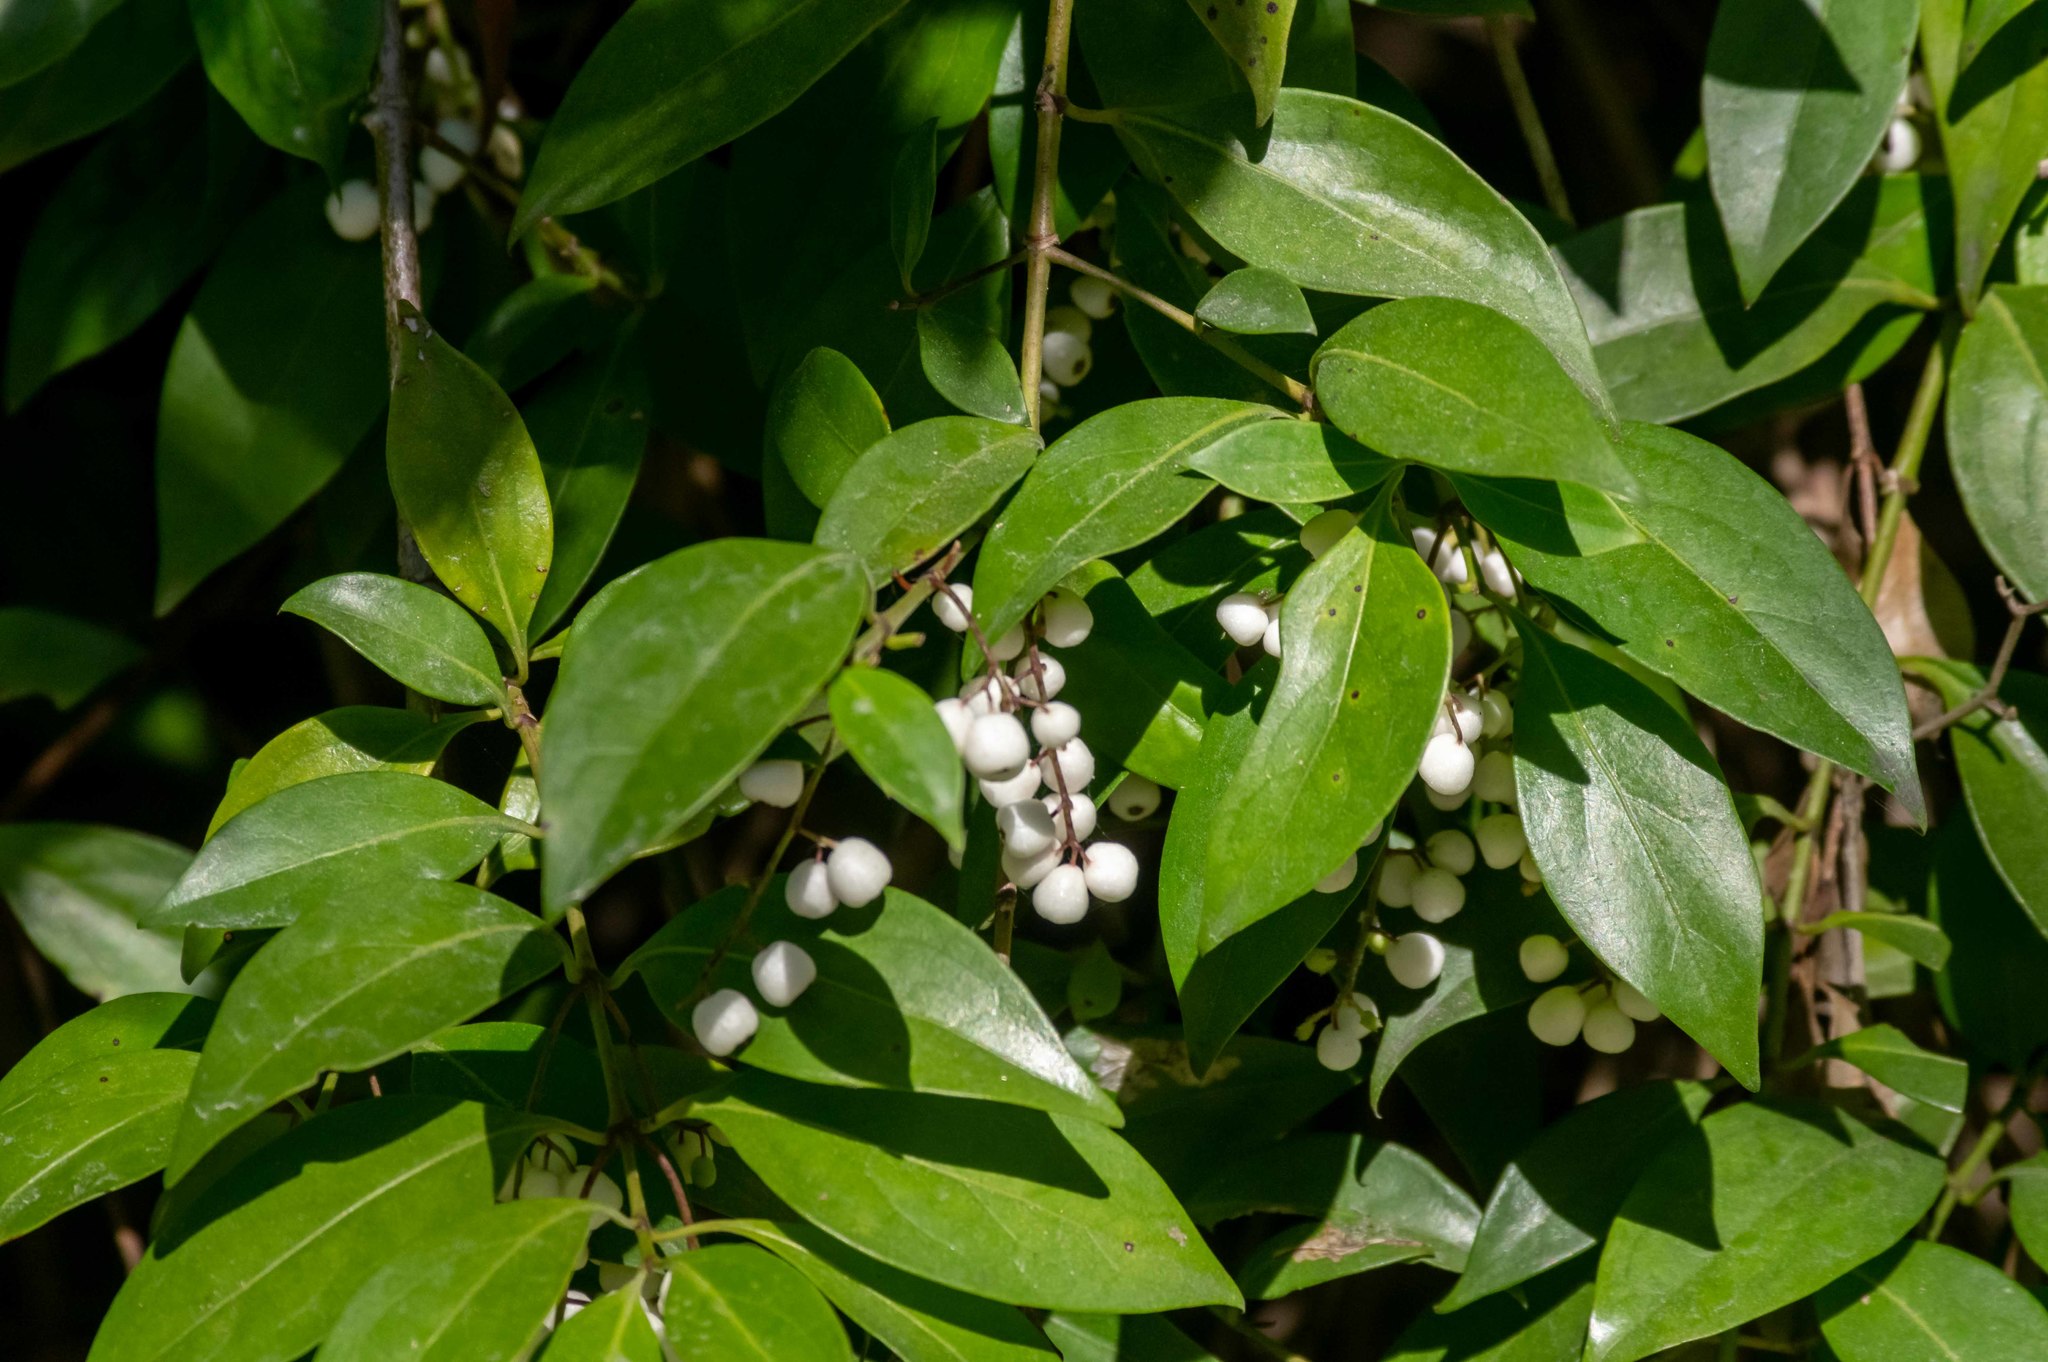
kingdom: Plantae
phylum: Tracheophyta
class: Magnoliopsida
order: Gentianales
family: Rubiaceae
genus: Chiococca
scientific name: Chiococca alba
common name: Snowberry
